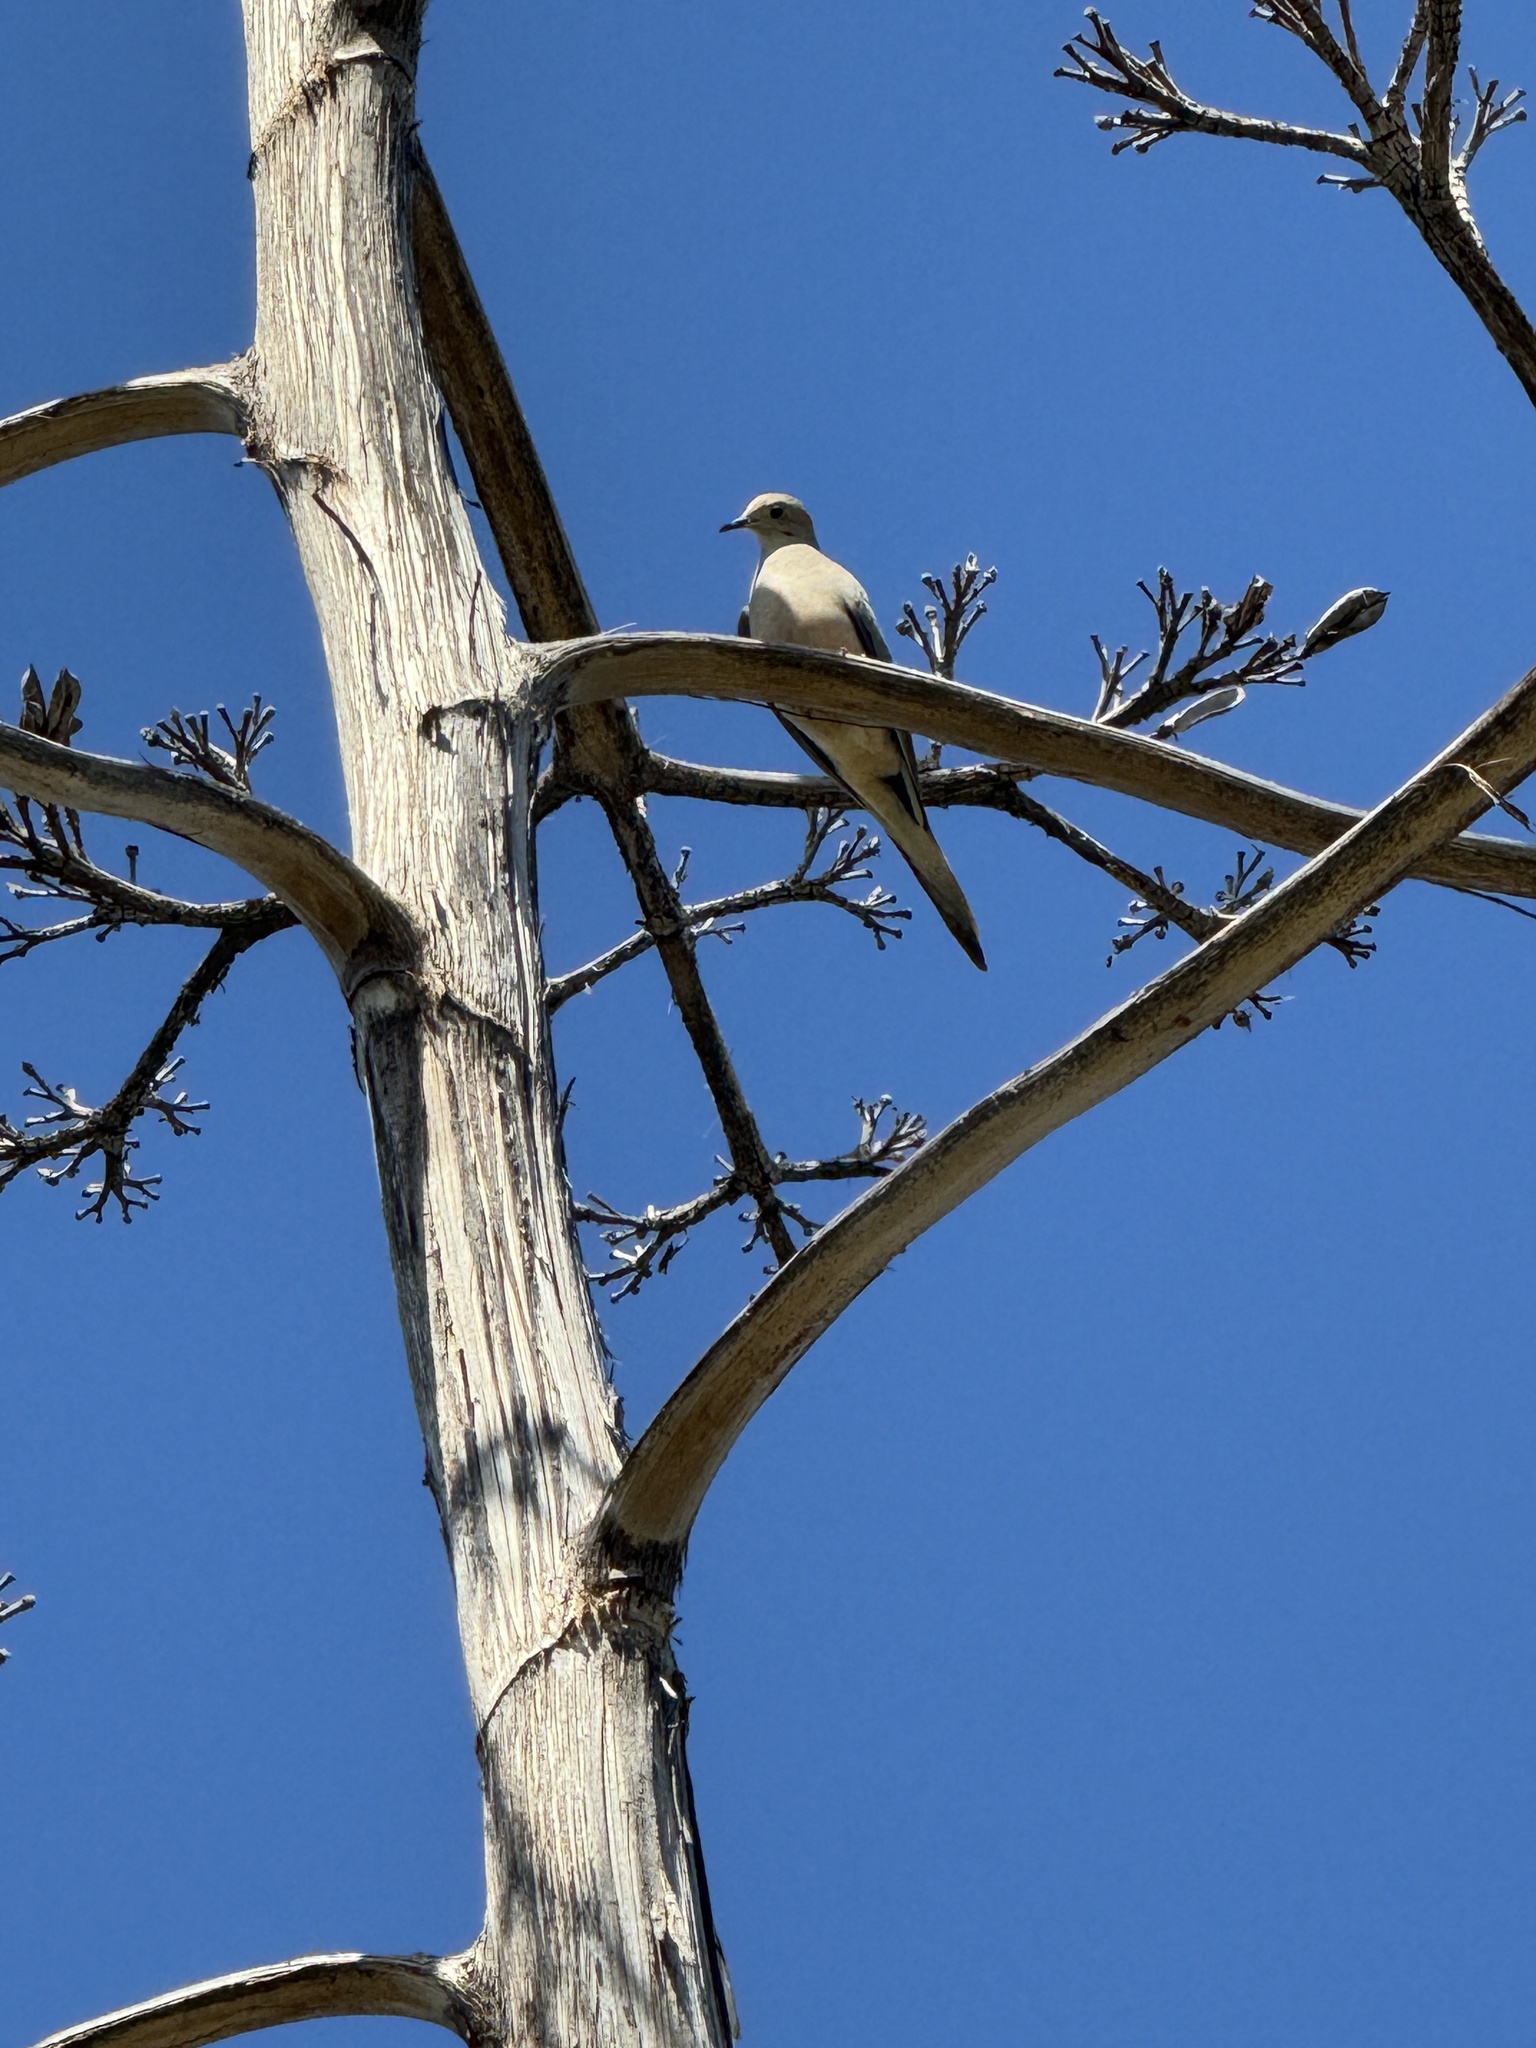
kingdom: Animalia
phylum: Chordata
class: Aves
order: Columbiformes
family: Columbidae
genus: Zenaida
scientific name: Zenaida macroura
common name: Mourning dove
